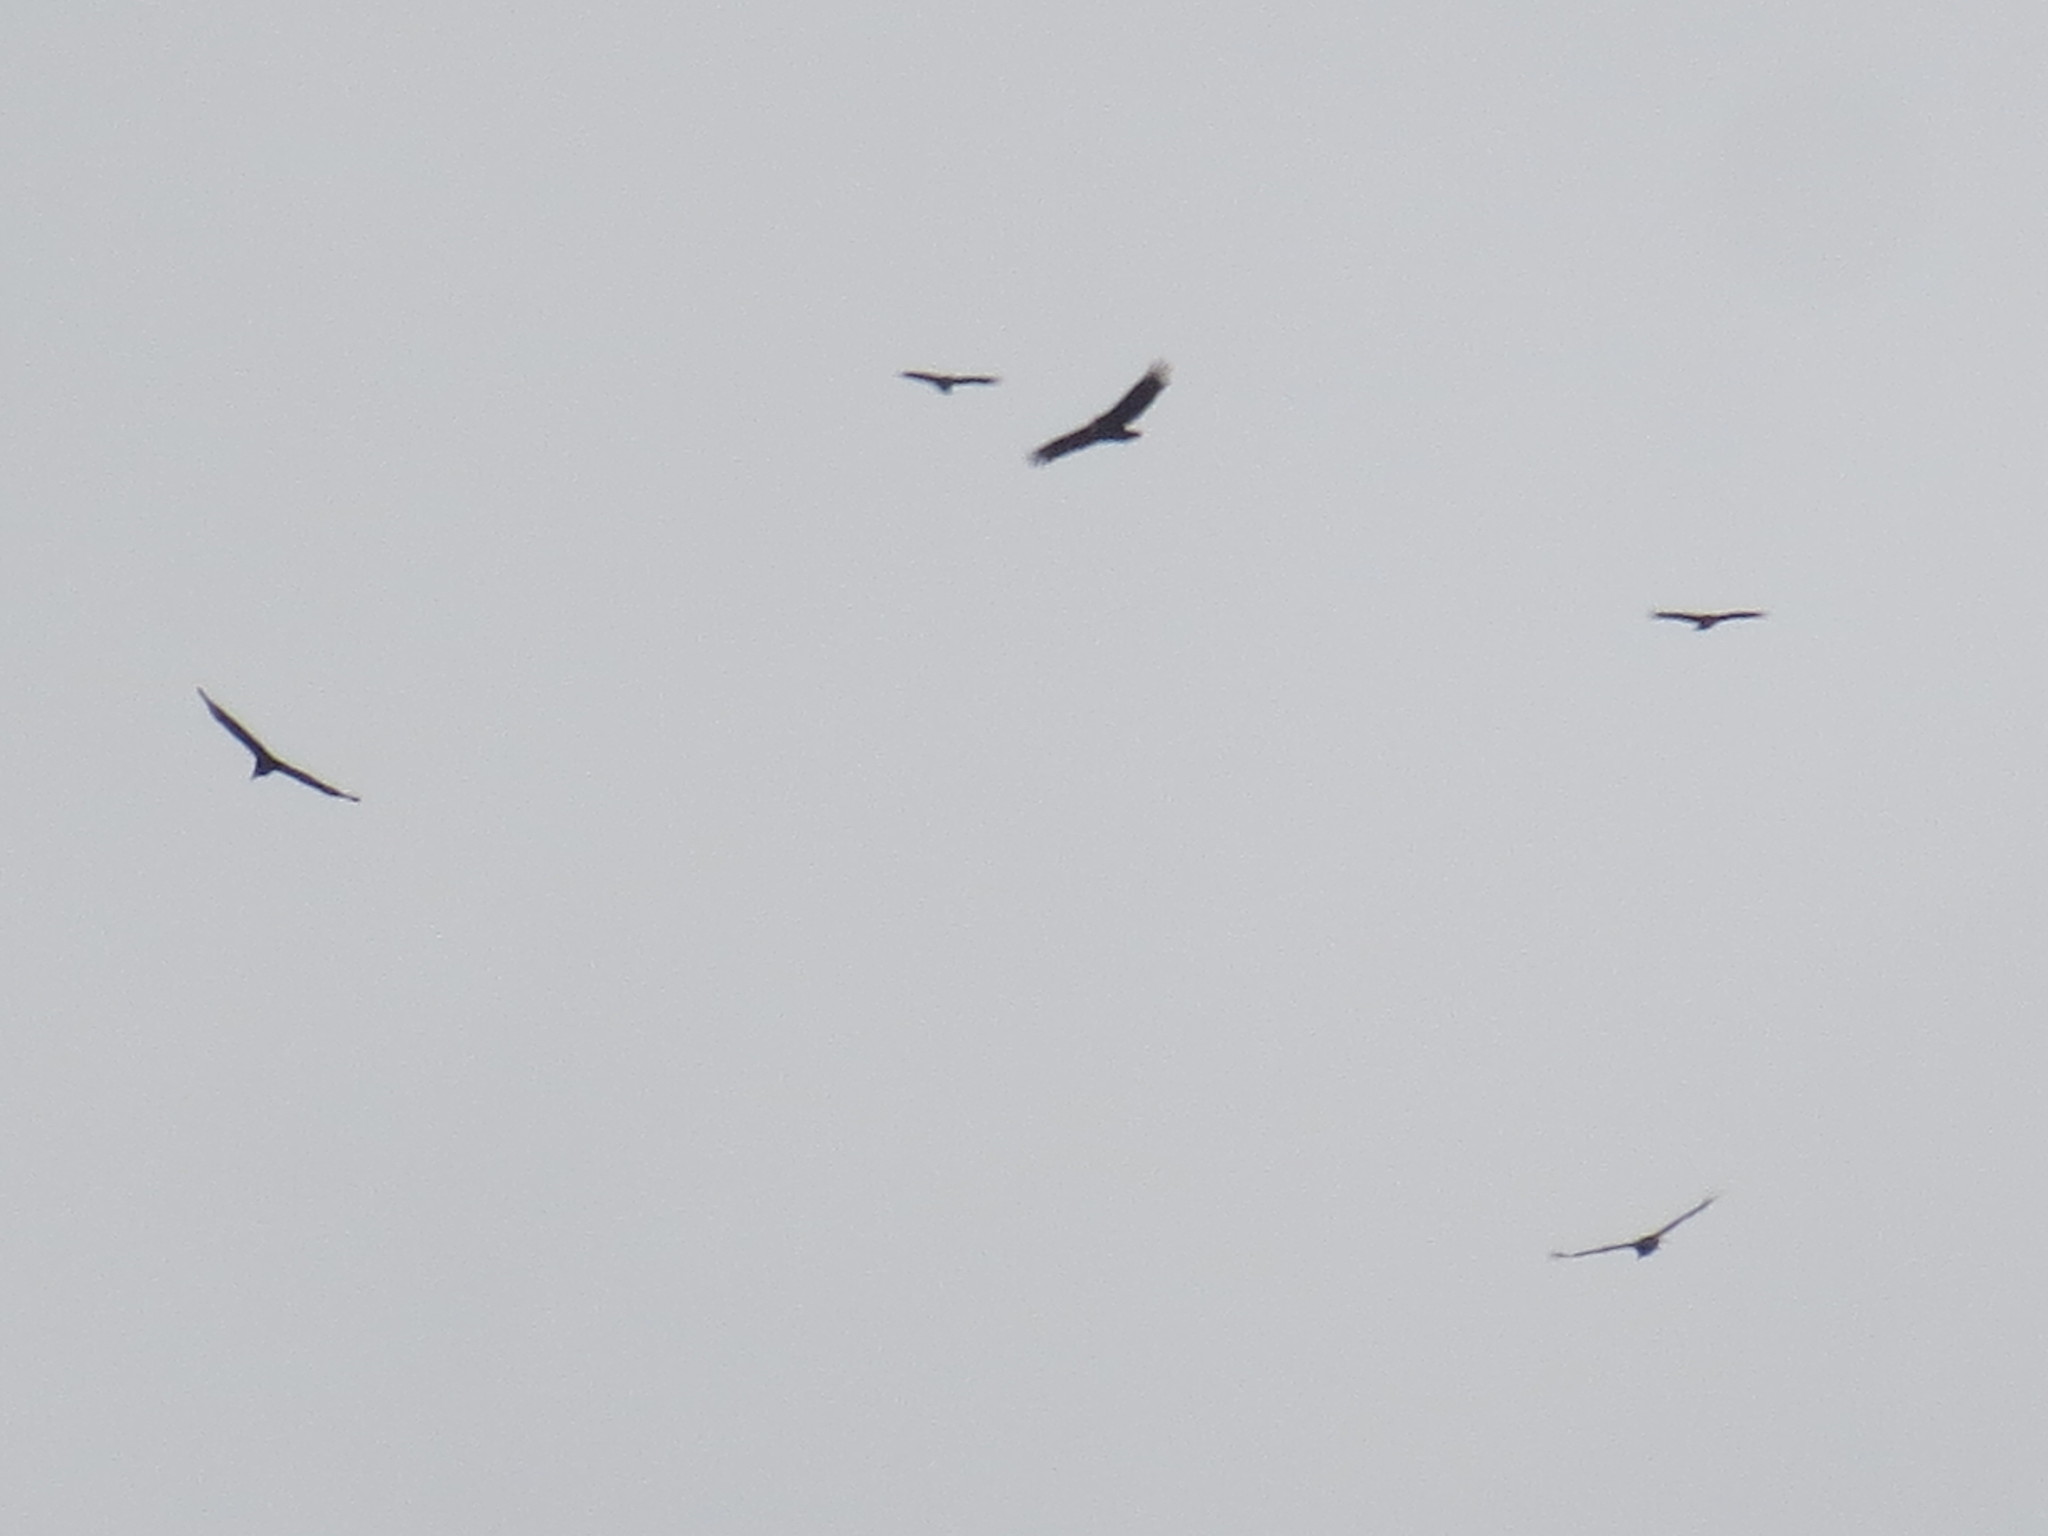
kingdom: Animalia
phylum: Chordata
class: Aves
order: Accipitriformes
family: Cathartidae
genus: Coragyps
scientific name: Coragyps atratus
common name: Black vulture
